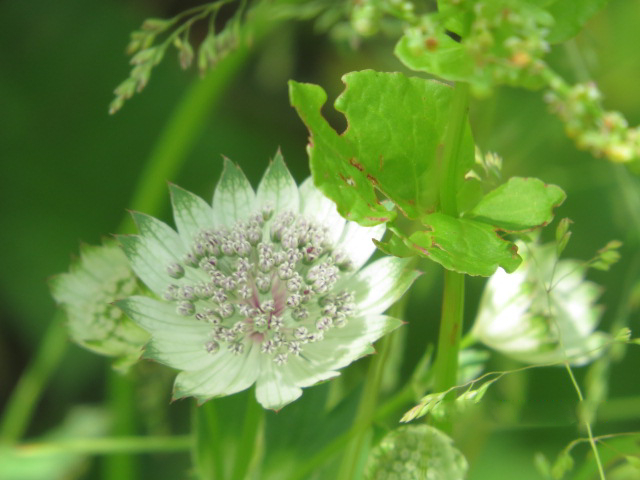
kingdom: Plantae
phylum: Tracheophyta
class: Magnoliopsida
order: Apiales
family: Apiaceae
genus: Astrantia
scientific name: Astrantia major
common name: Greater masterwort
